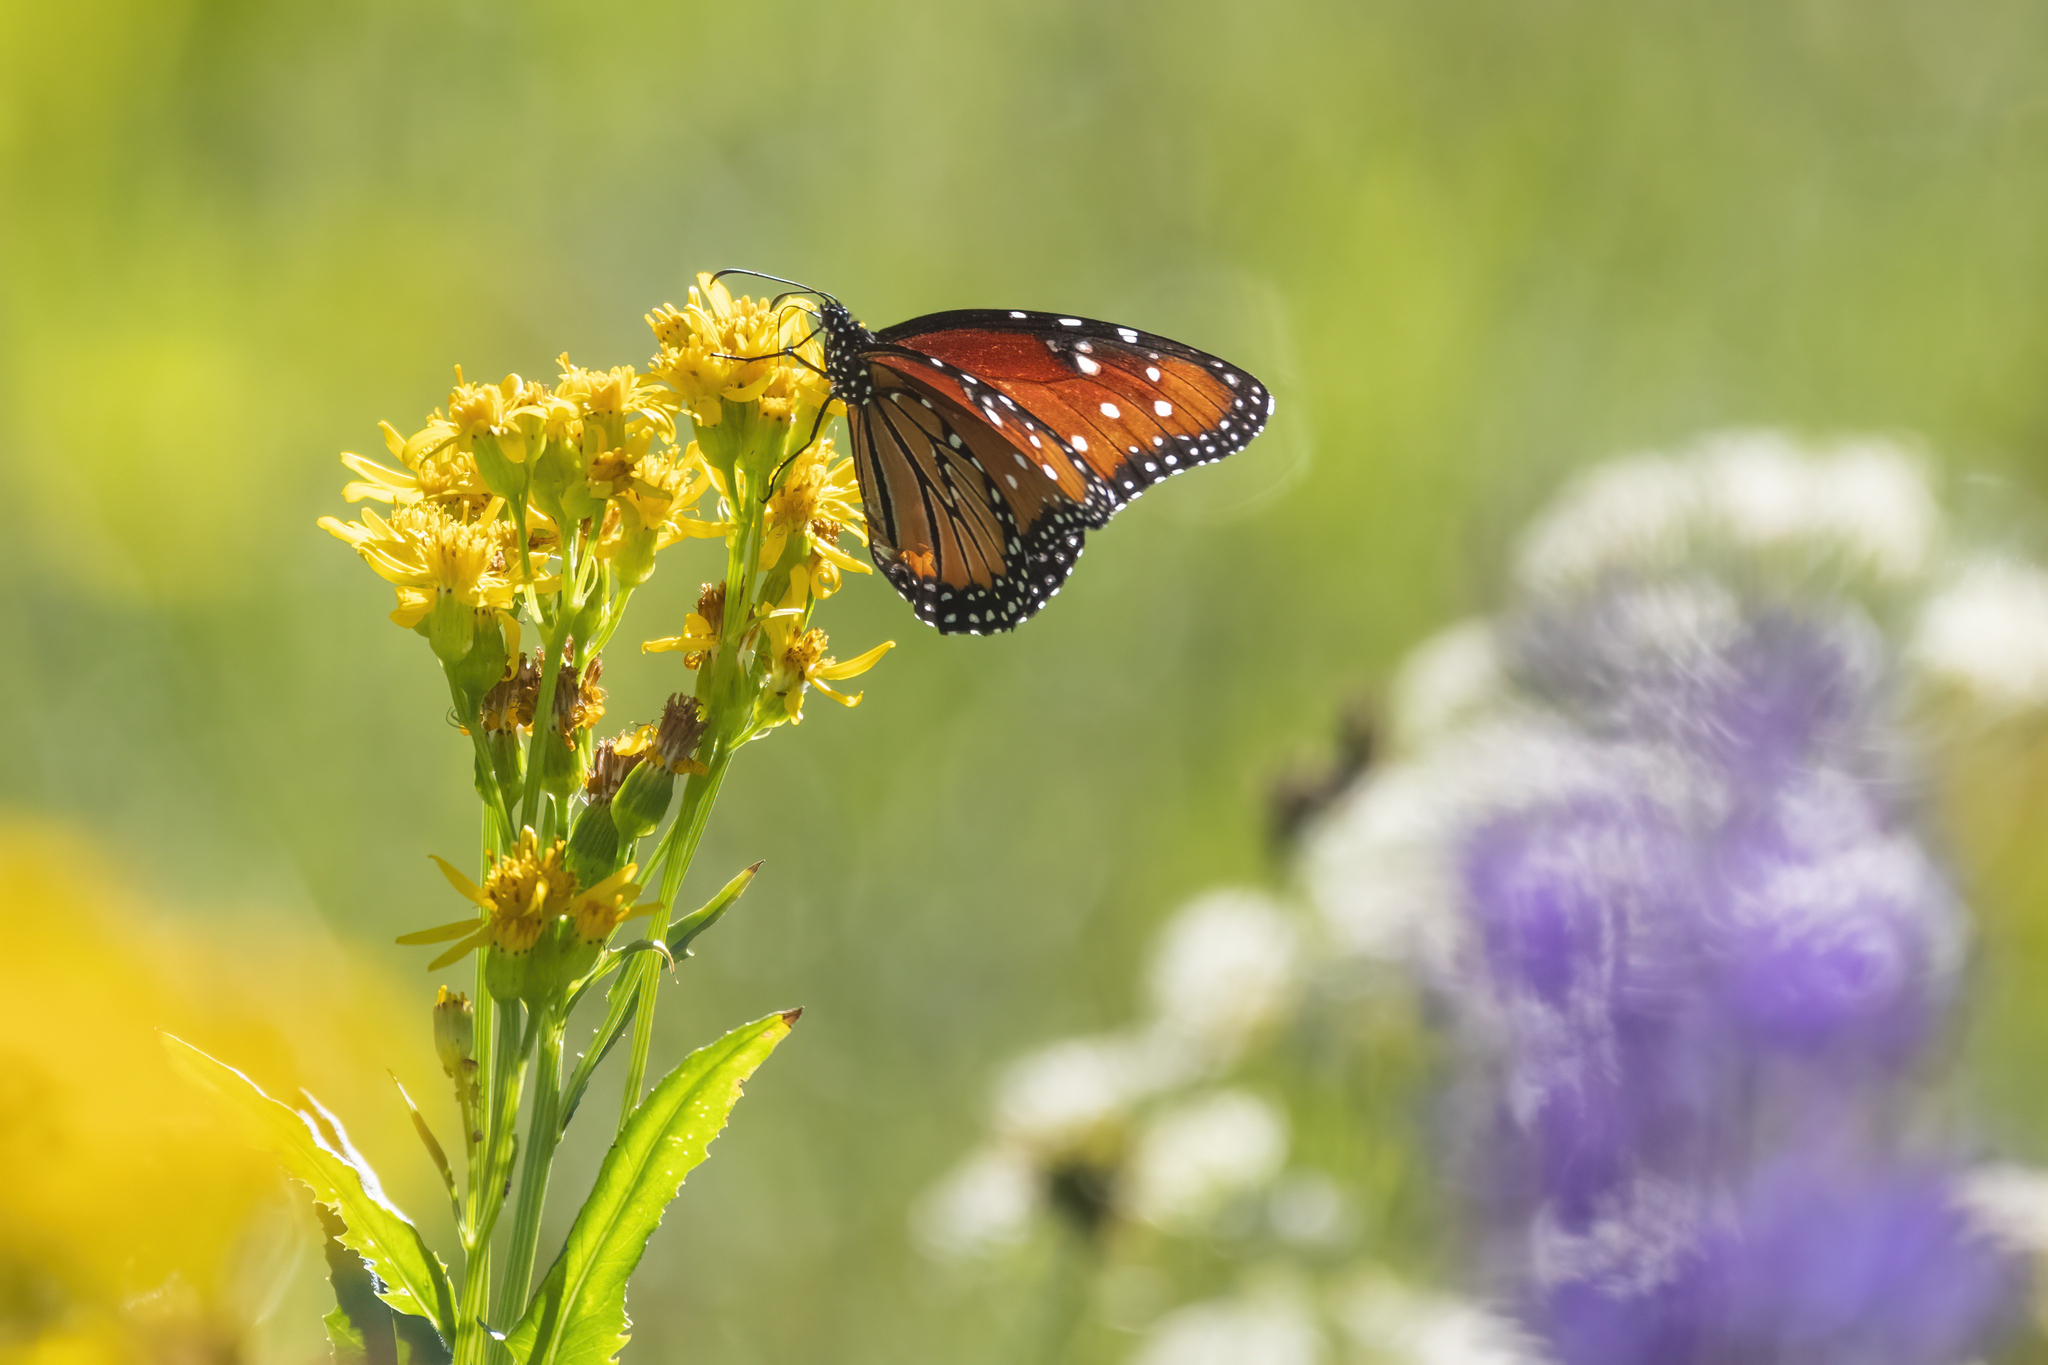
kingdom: Animalia
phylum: Arthropoda
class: Insecta
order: Lepidoptera
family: Nymphalidae
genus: Danaus
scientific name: Danaus gilippus
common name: Queen
